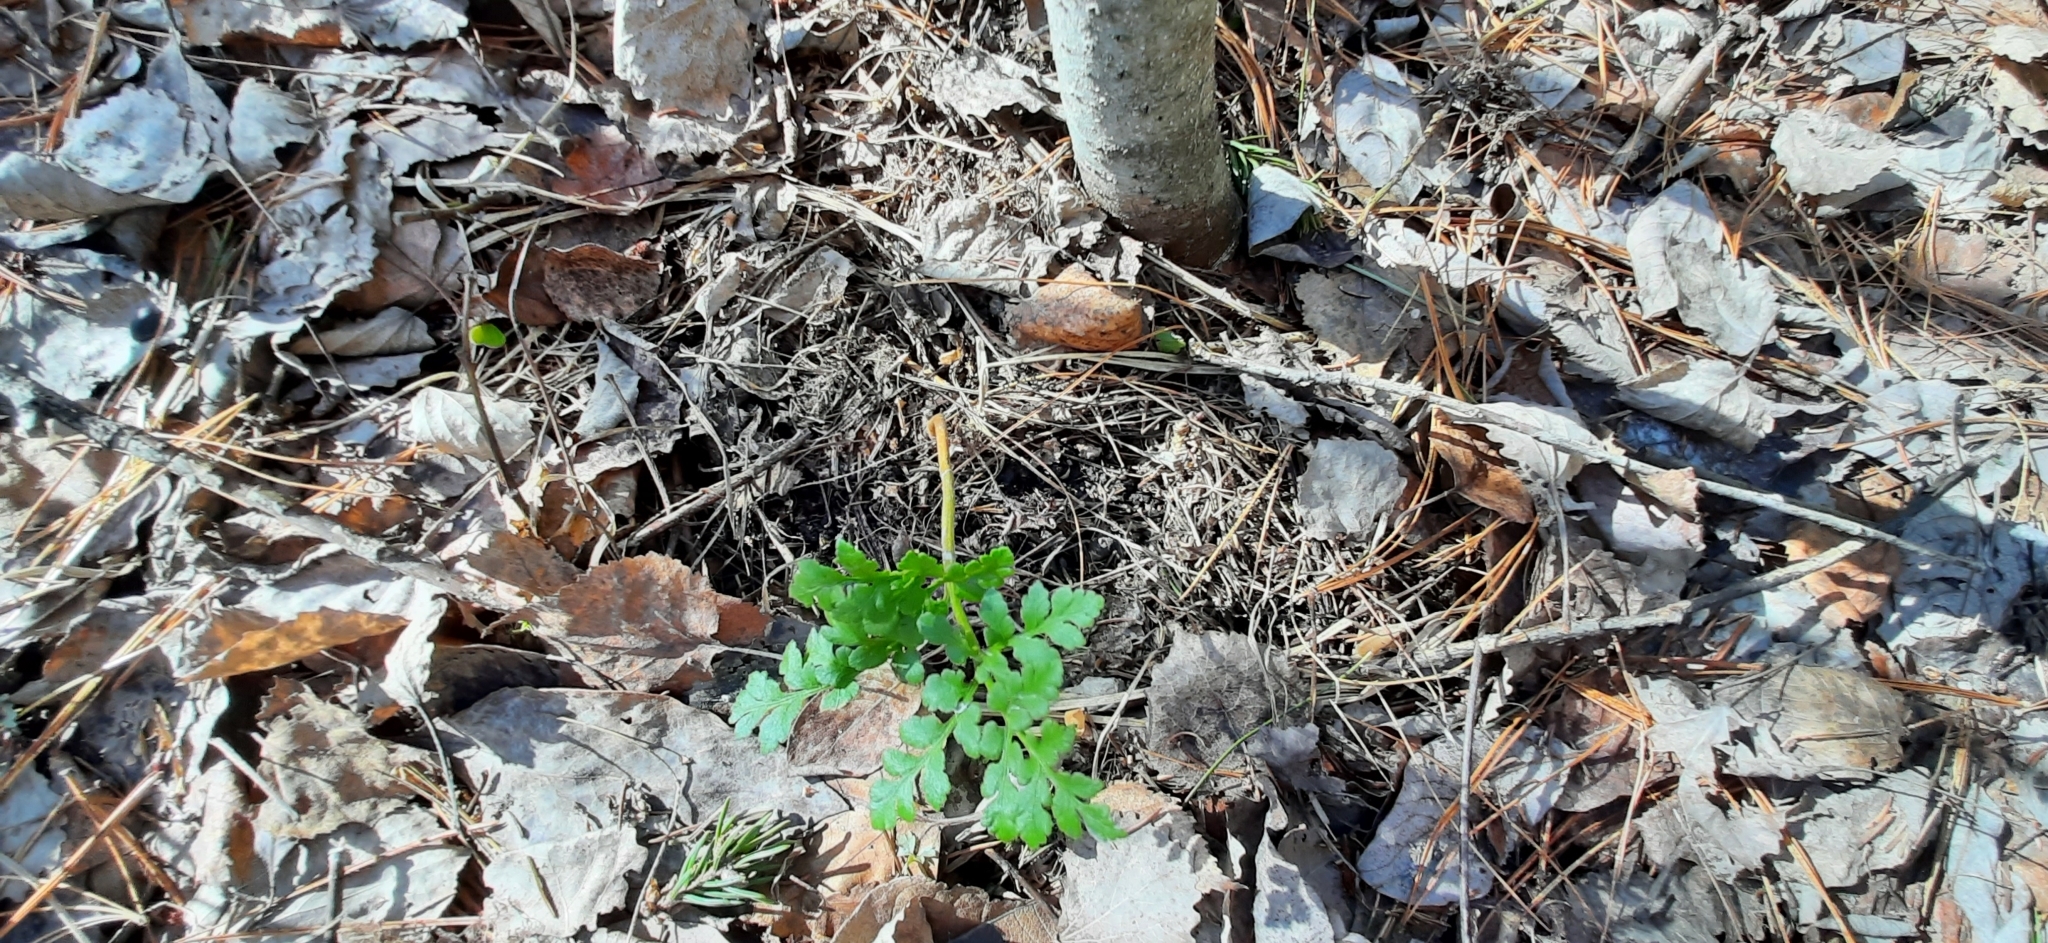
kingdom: Plantae
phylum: Tracheophyta
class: Polypodiopsida
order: Ophioglossales
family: Ophioglossaceae
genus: Sceptridium
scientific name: Sceptridium multifidum
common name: Leathery grape fern
